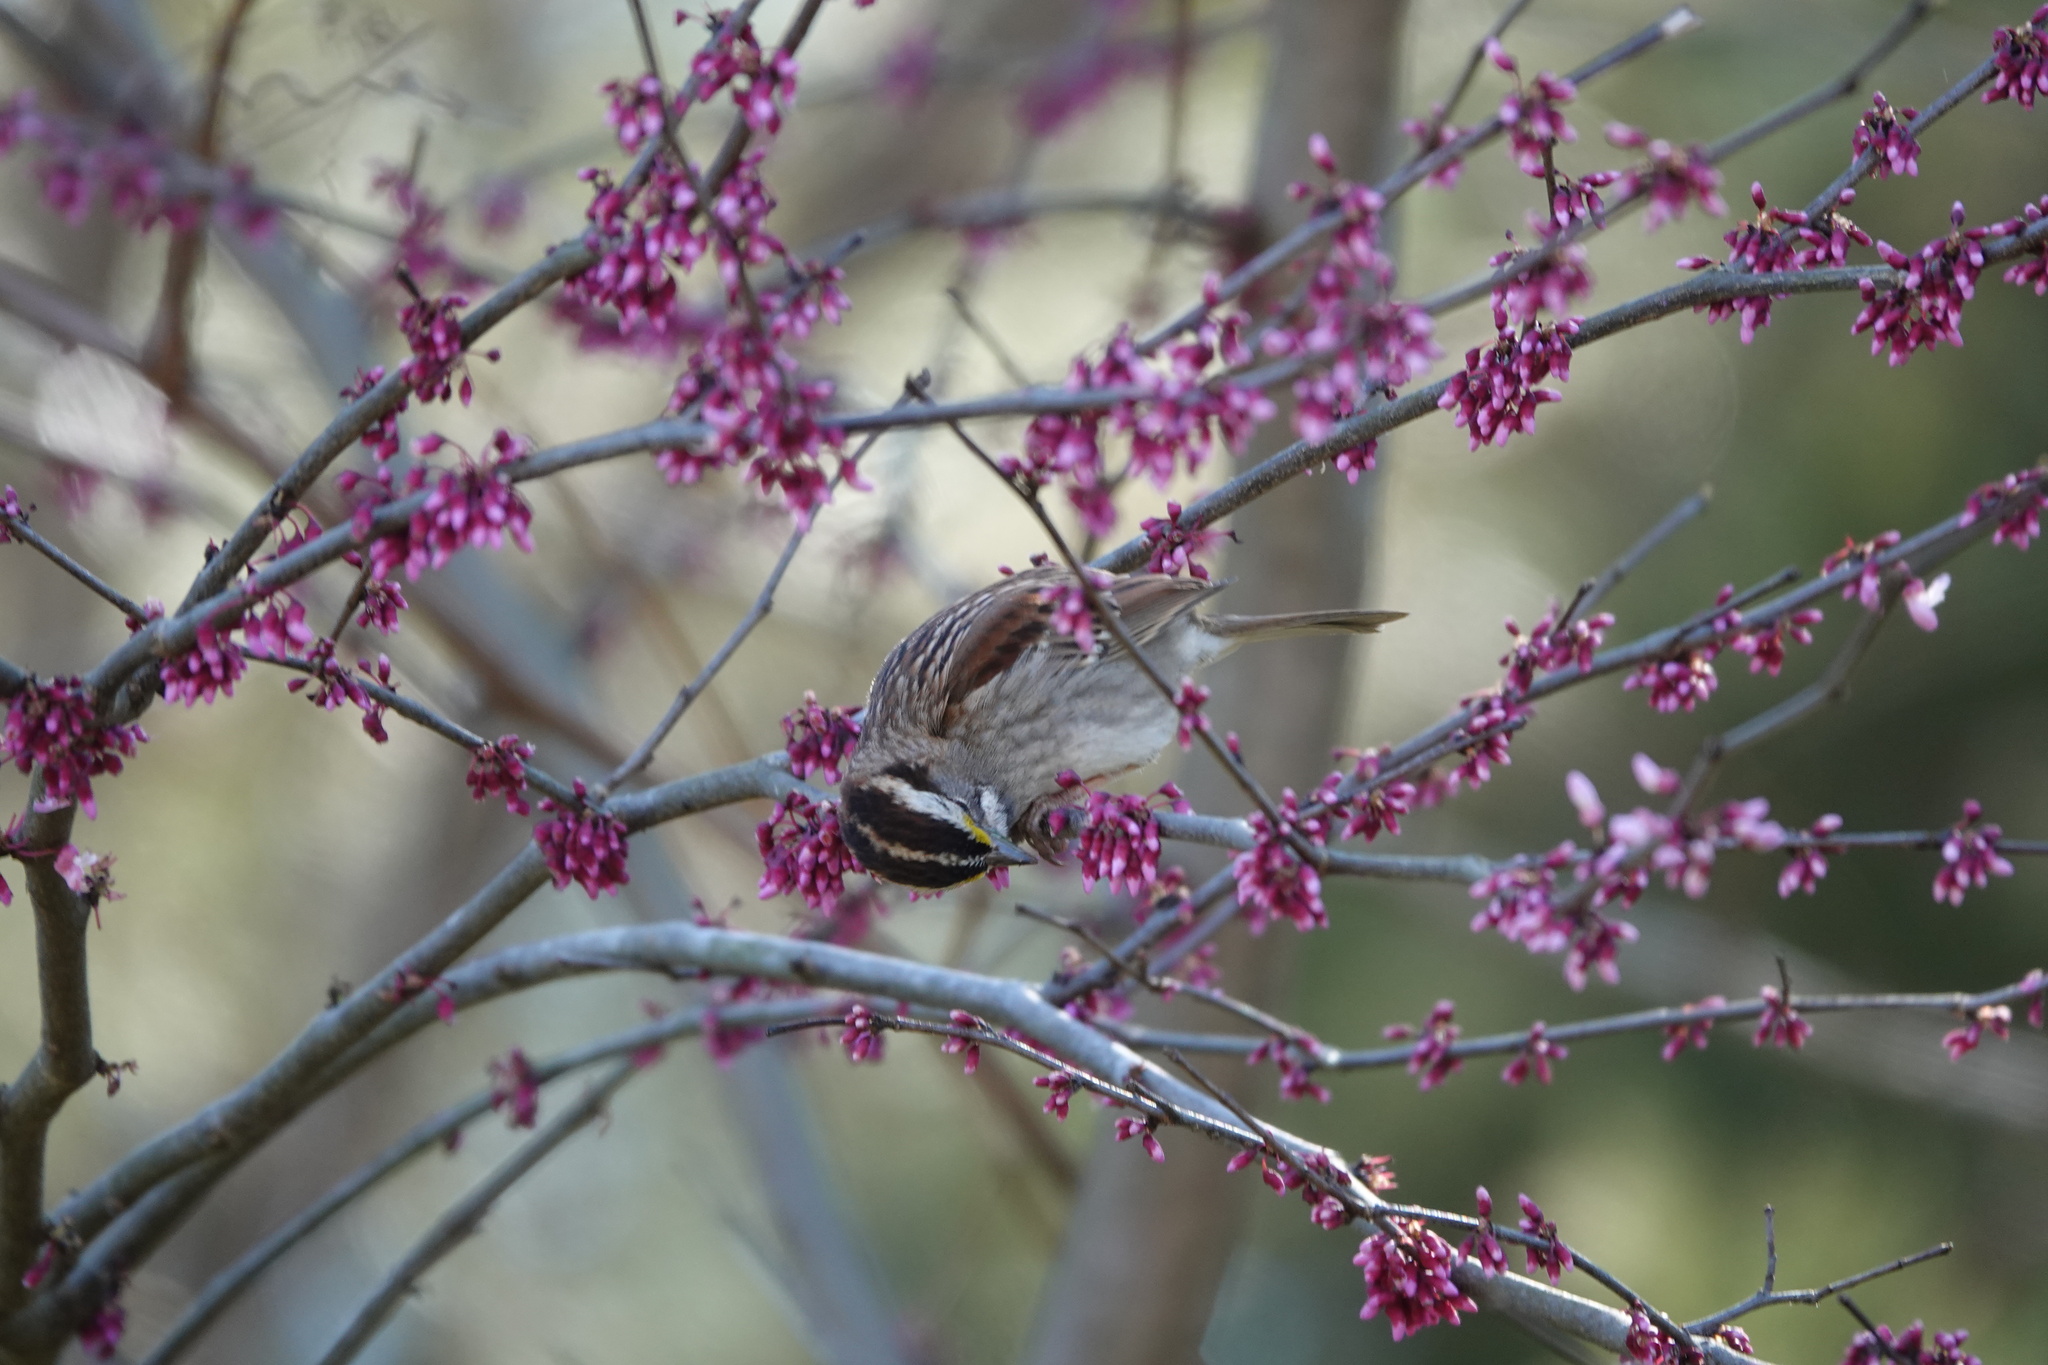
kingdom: Animalia
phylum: Chordata
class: Aves
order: Passeriformes
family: Passerellidae
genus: Zonotrichia
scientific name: Zonotrichia albicollis
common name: White-throated sparrow
